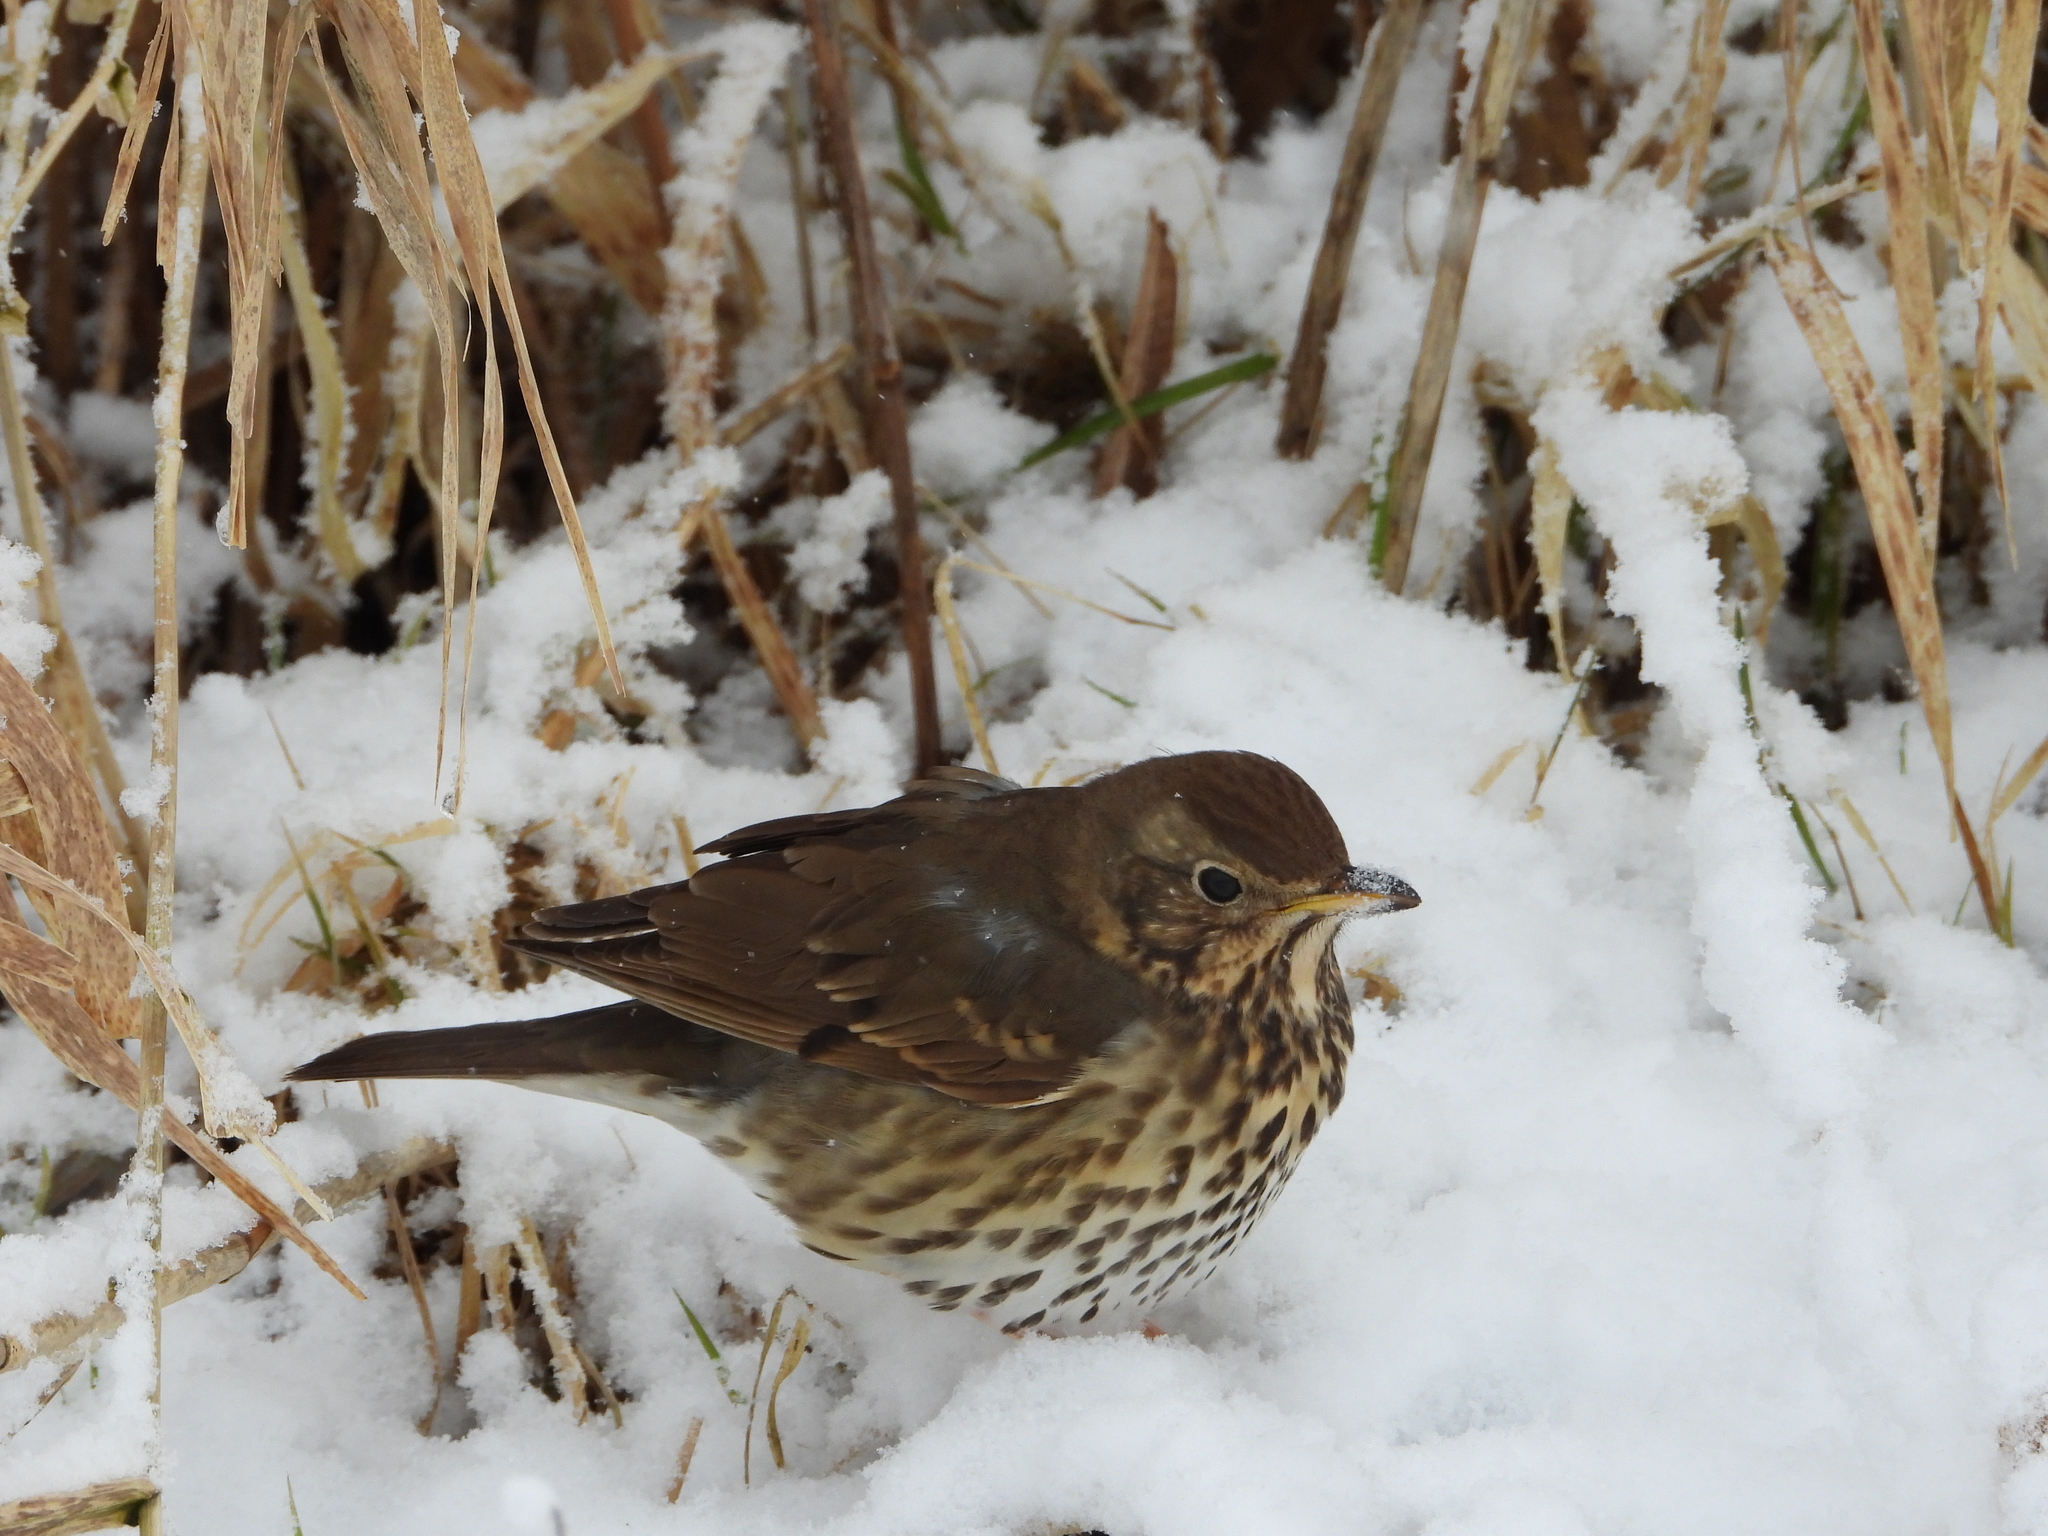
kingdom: Animalia
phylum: Chordata
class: Aves
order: Passeriformes
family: Turdidae
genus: Turdus
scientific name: Turdus philomelos
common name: Song thrush
